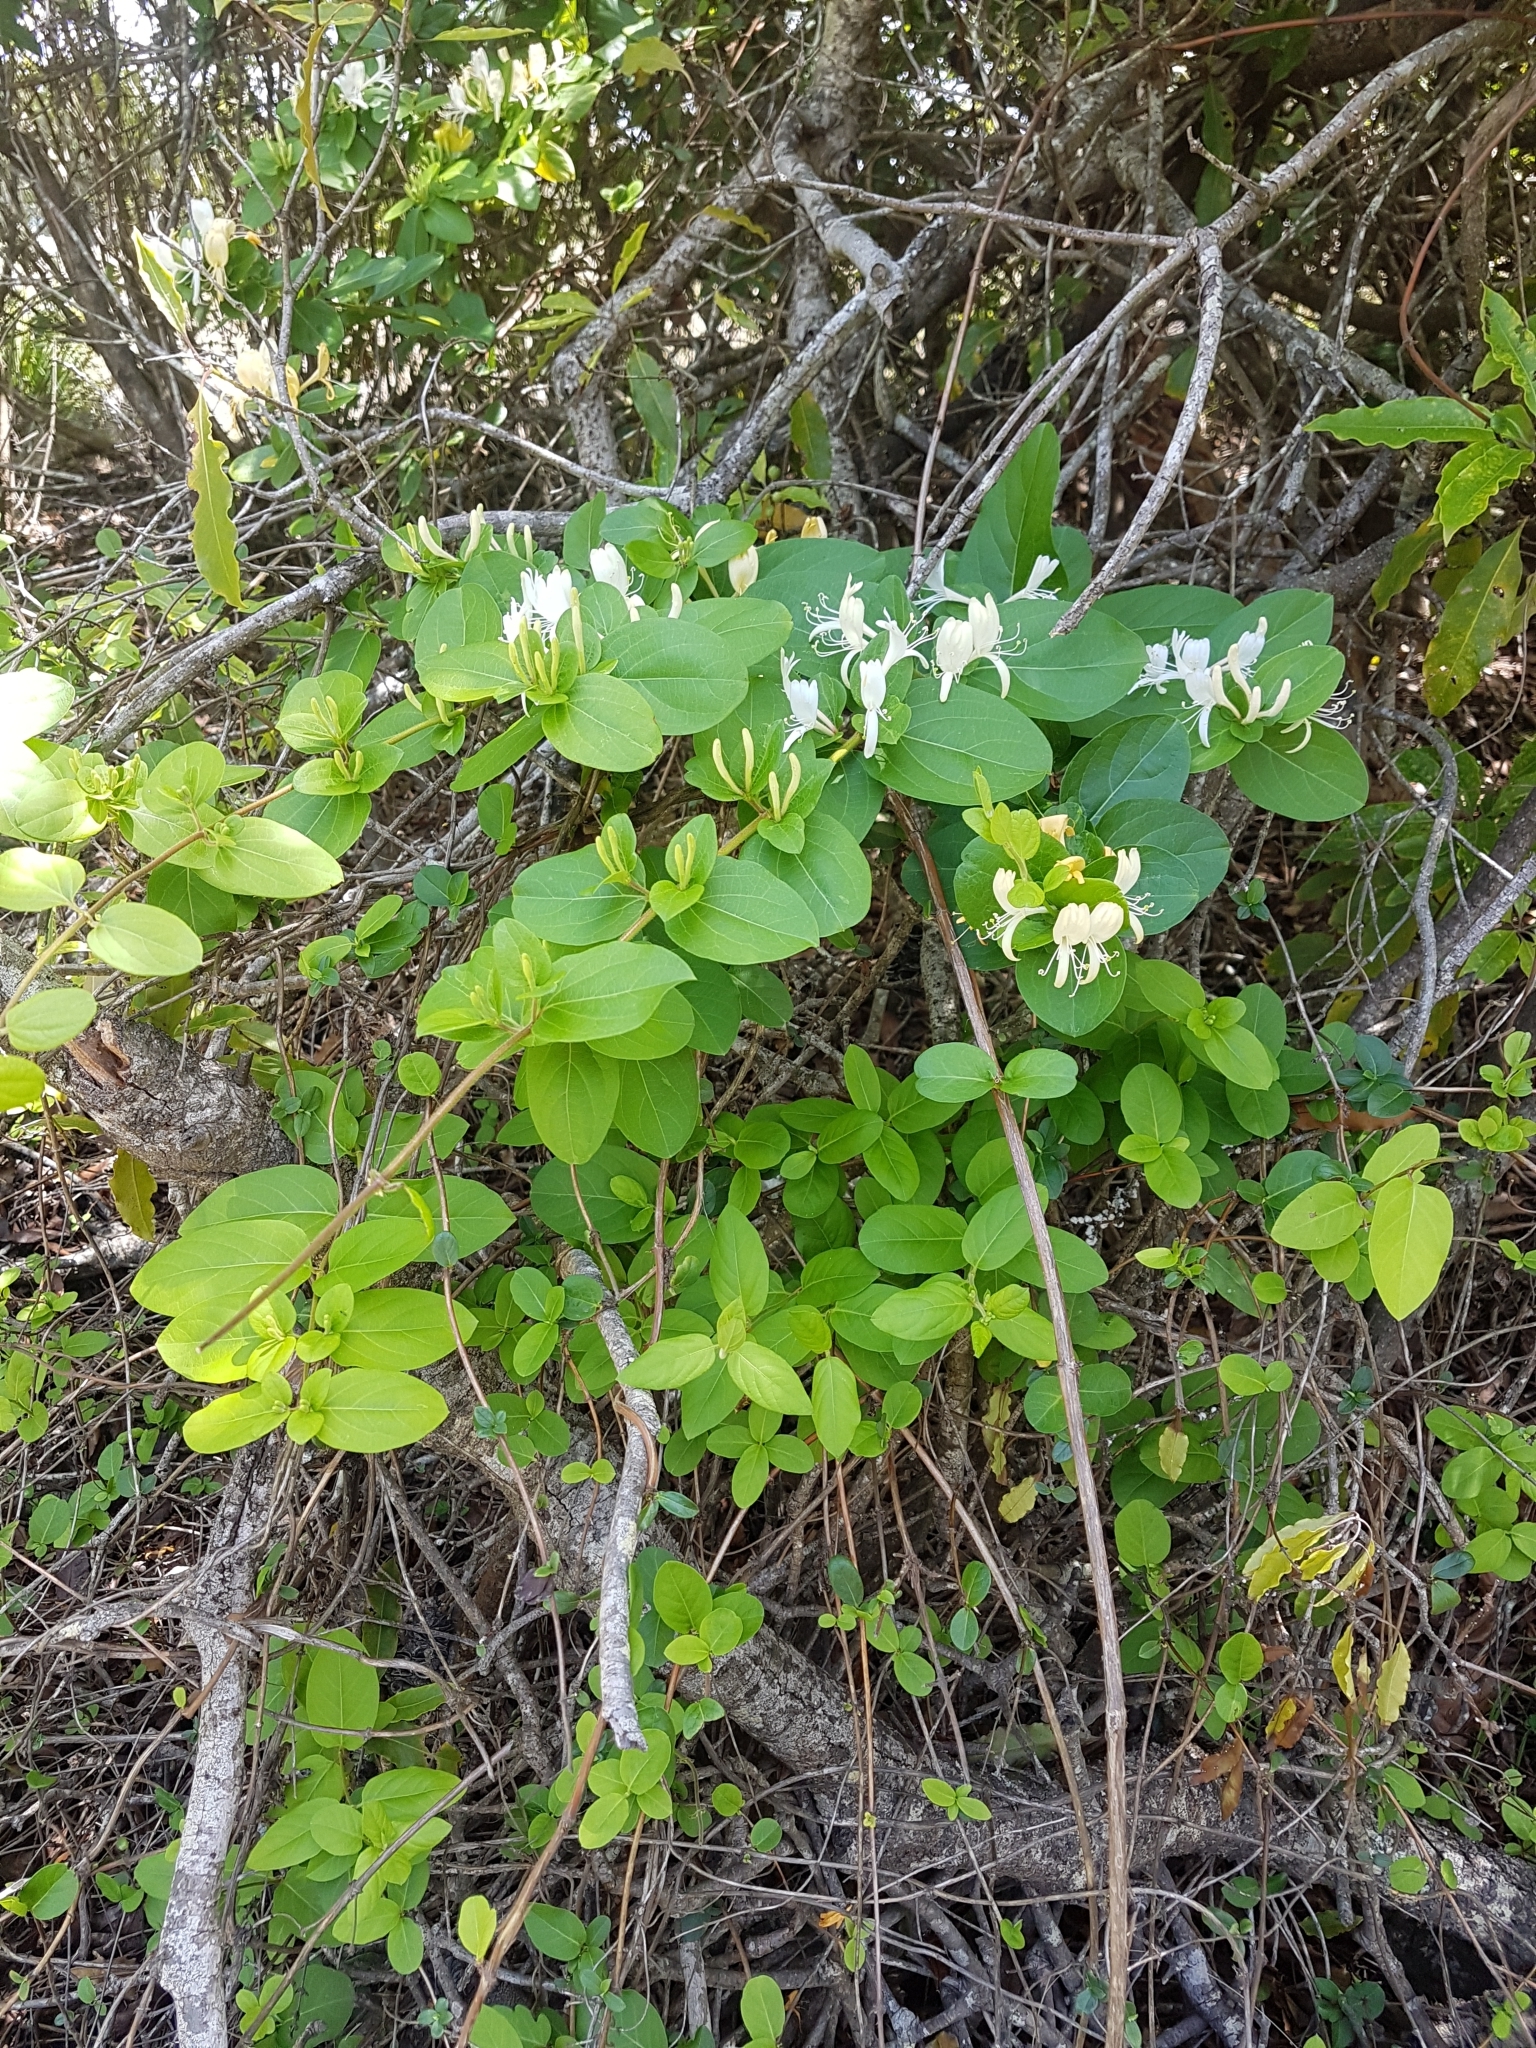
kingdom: Plantae
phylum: Tracheophyta
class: Magnoliopsida
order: Dipsacales
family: Caprifoliaceae
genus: Lonicera
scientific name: Lonicera japonica
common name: Japanese honeysuckle
